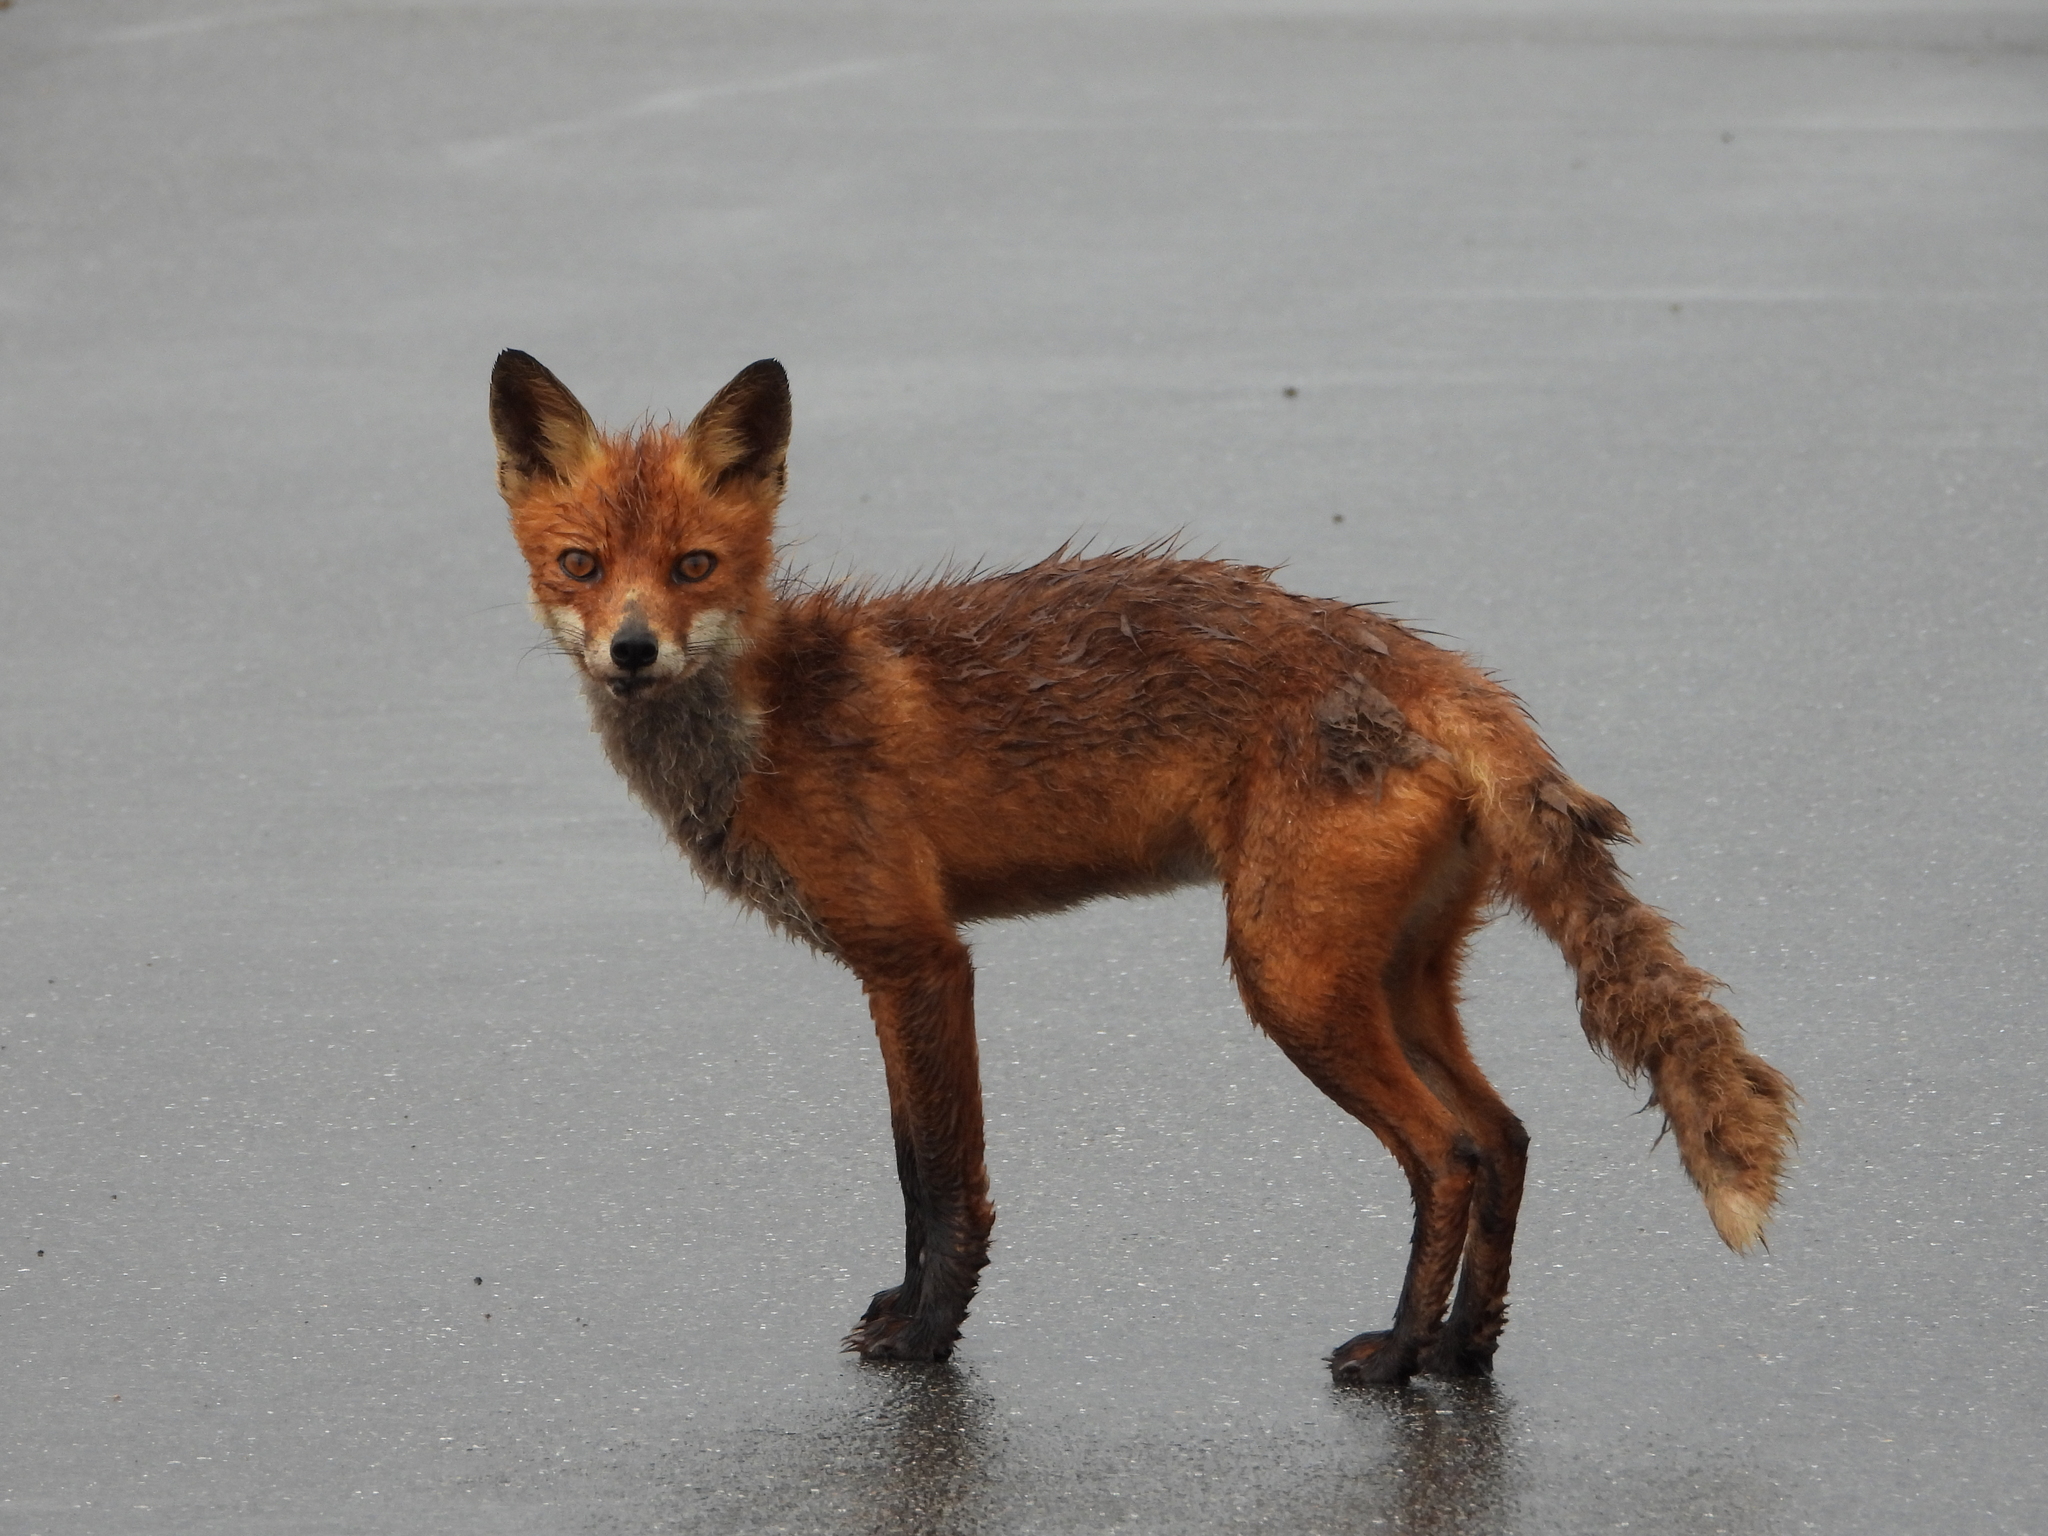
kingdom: Animalia
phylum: Chordata
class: Mammalia
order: Carnivora
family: Canidae
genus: Vulpes
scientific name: Vulpes vulpes
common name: Red fox
